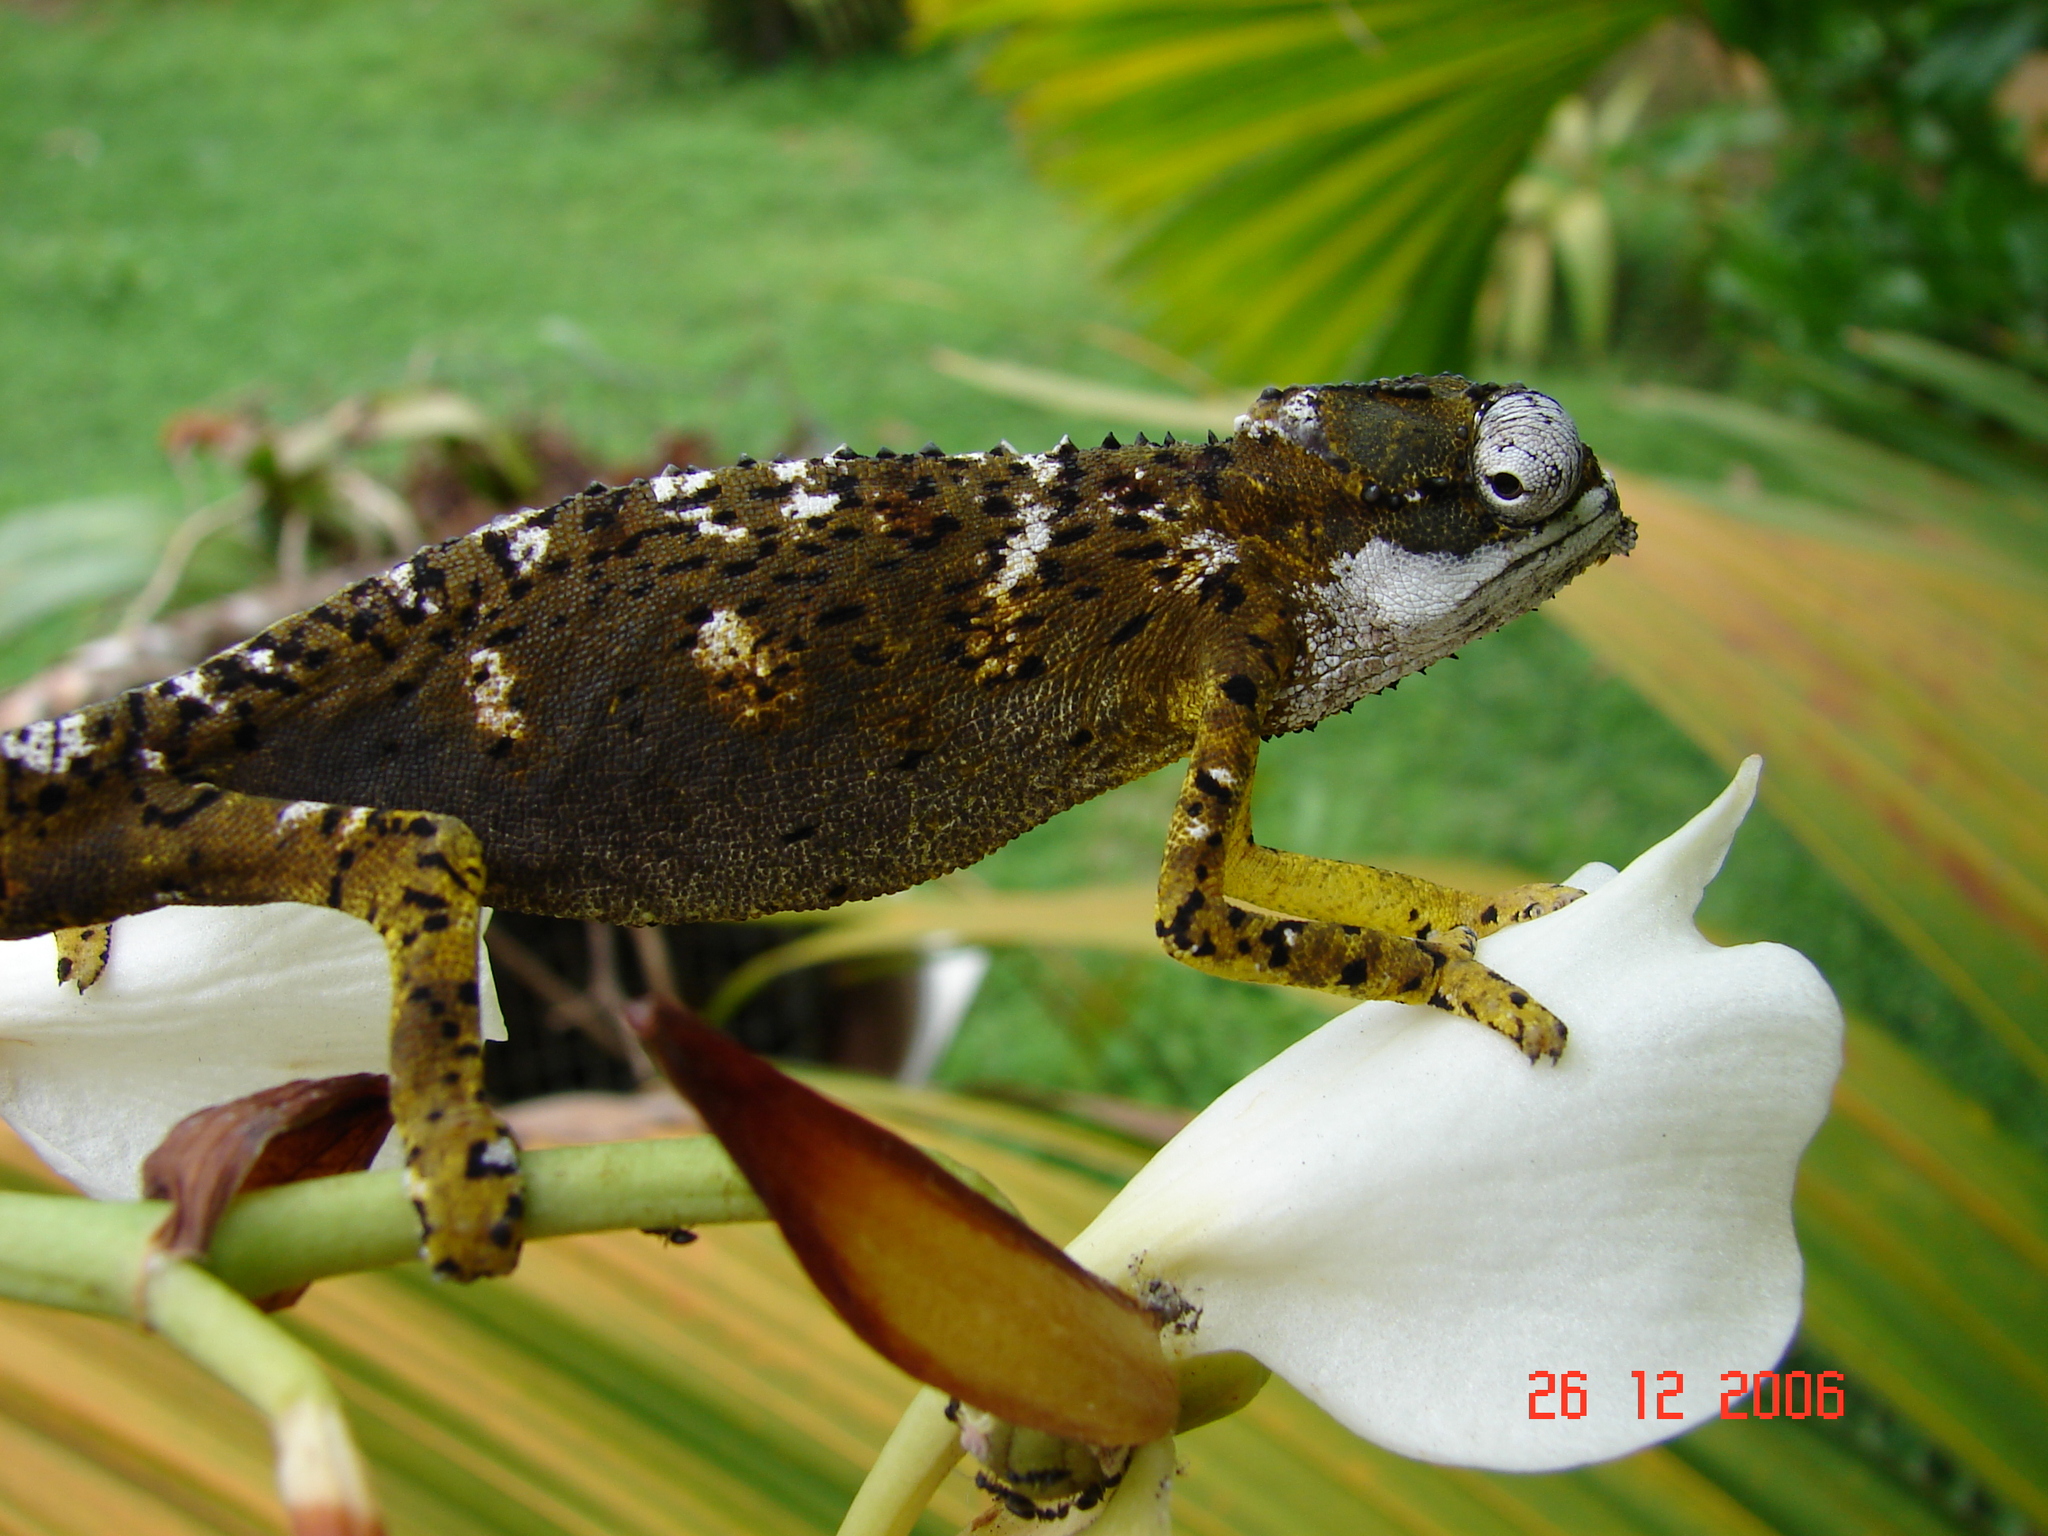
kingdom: Animalia
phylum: Chordata
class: Squamata
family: Chamaeleonidae
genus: Archaius
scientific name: Archaius tigris
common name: Seychelles tiger chameleon
